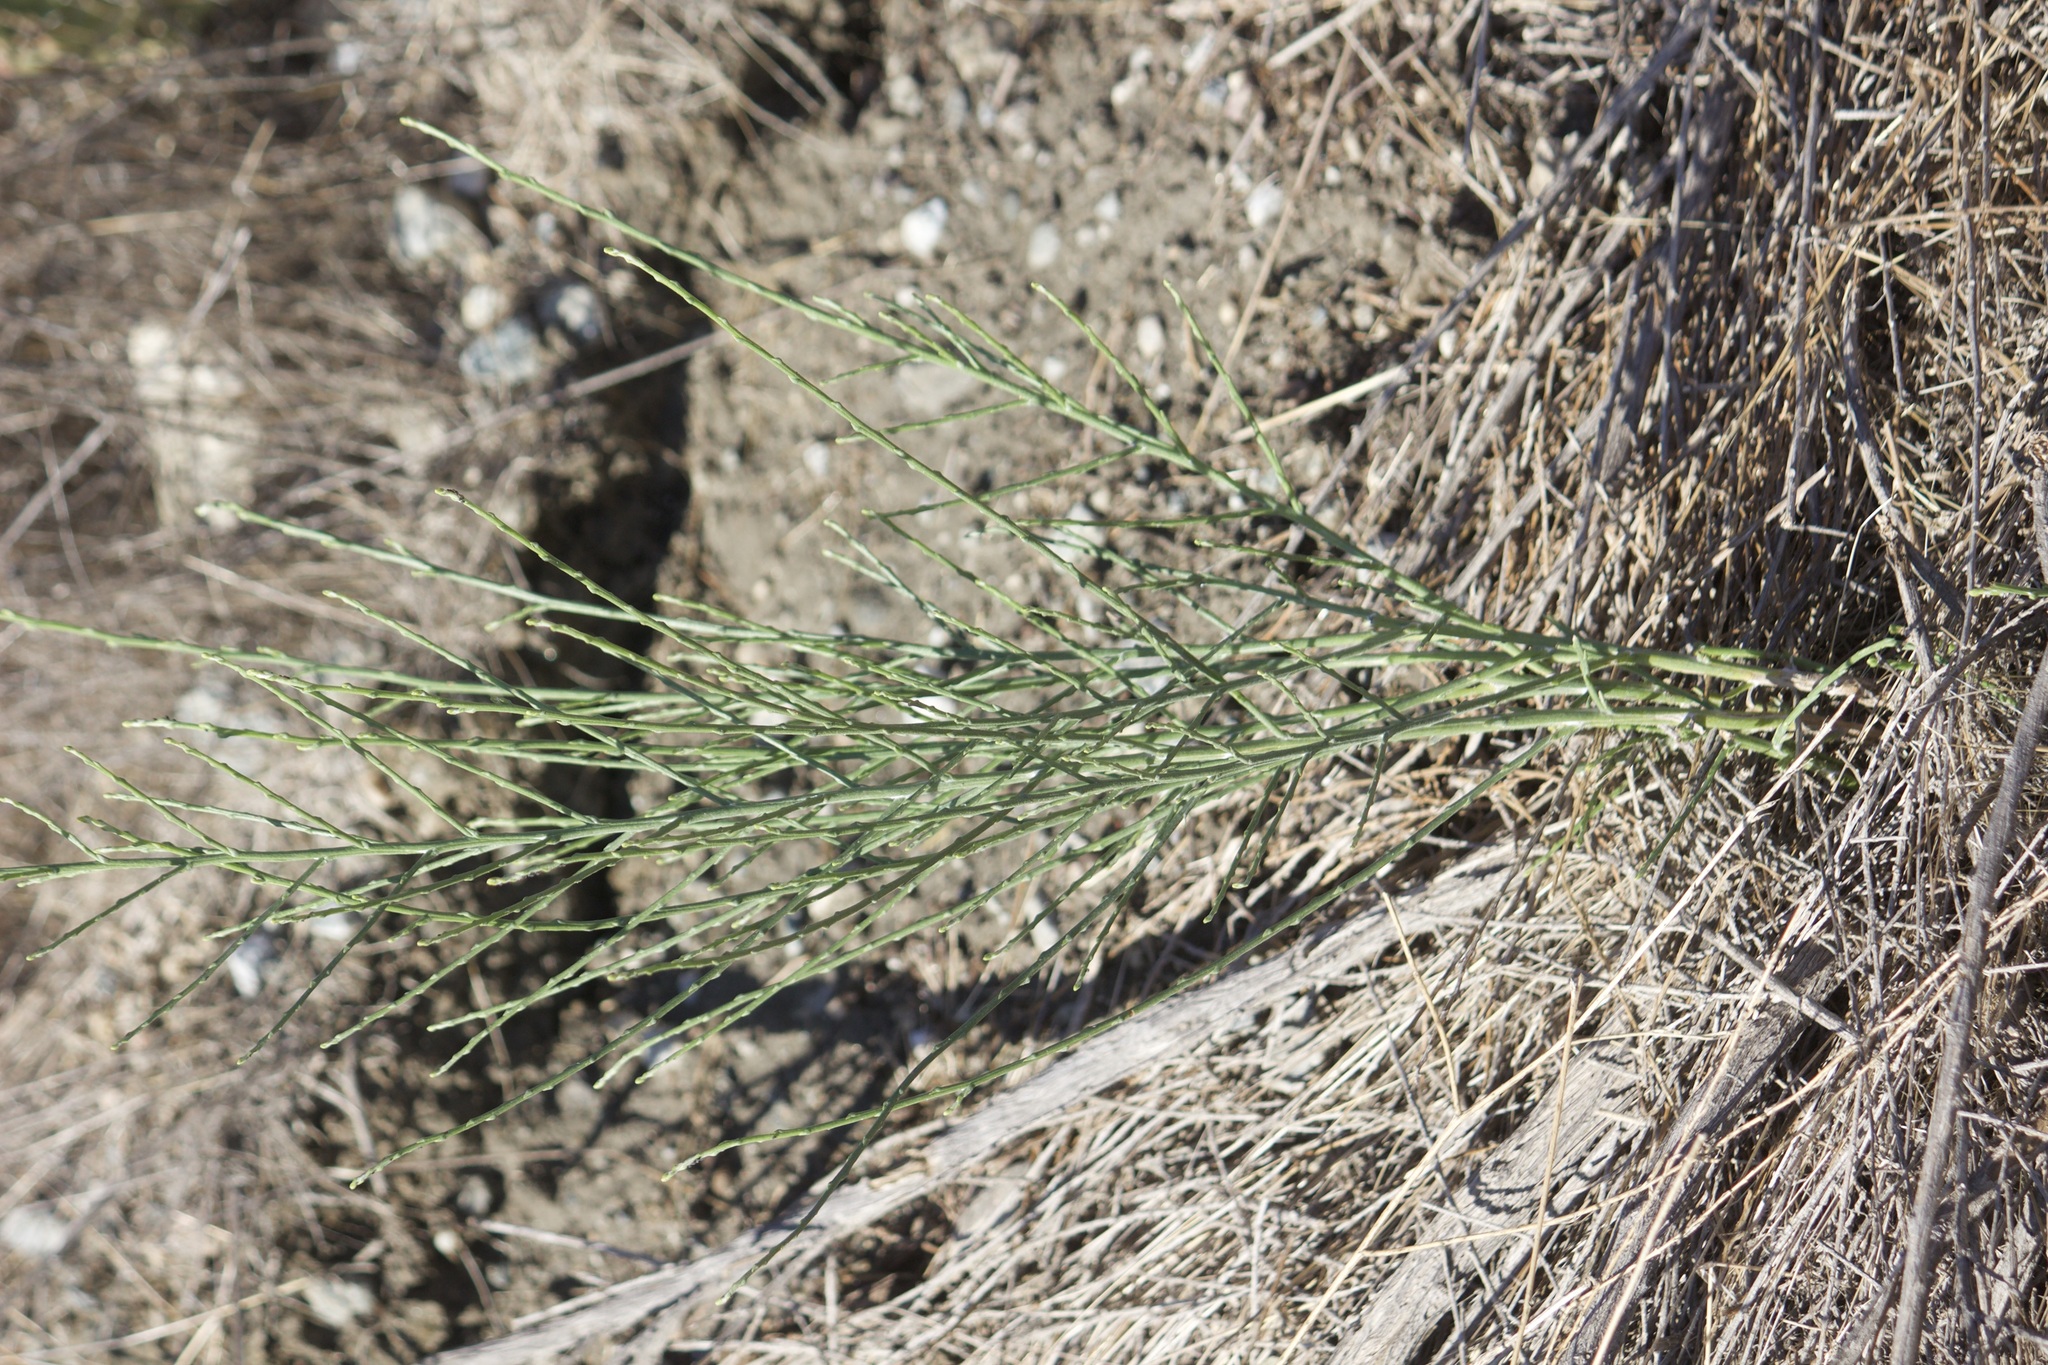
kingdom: Plantae
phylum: Tracheophyta
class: Magnoliopsida
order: Asterales
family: Asteraceae
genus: Lepidospartum
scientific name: Lepidospartum squamatum
